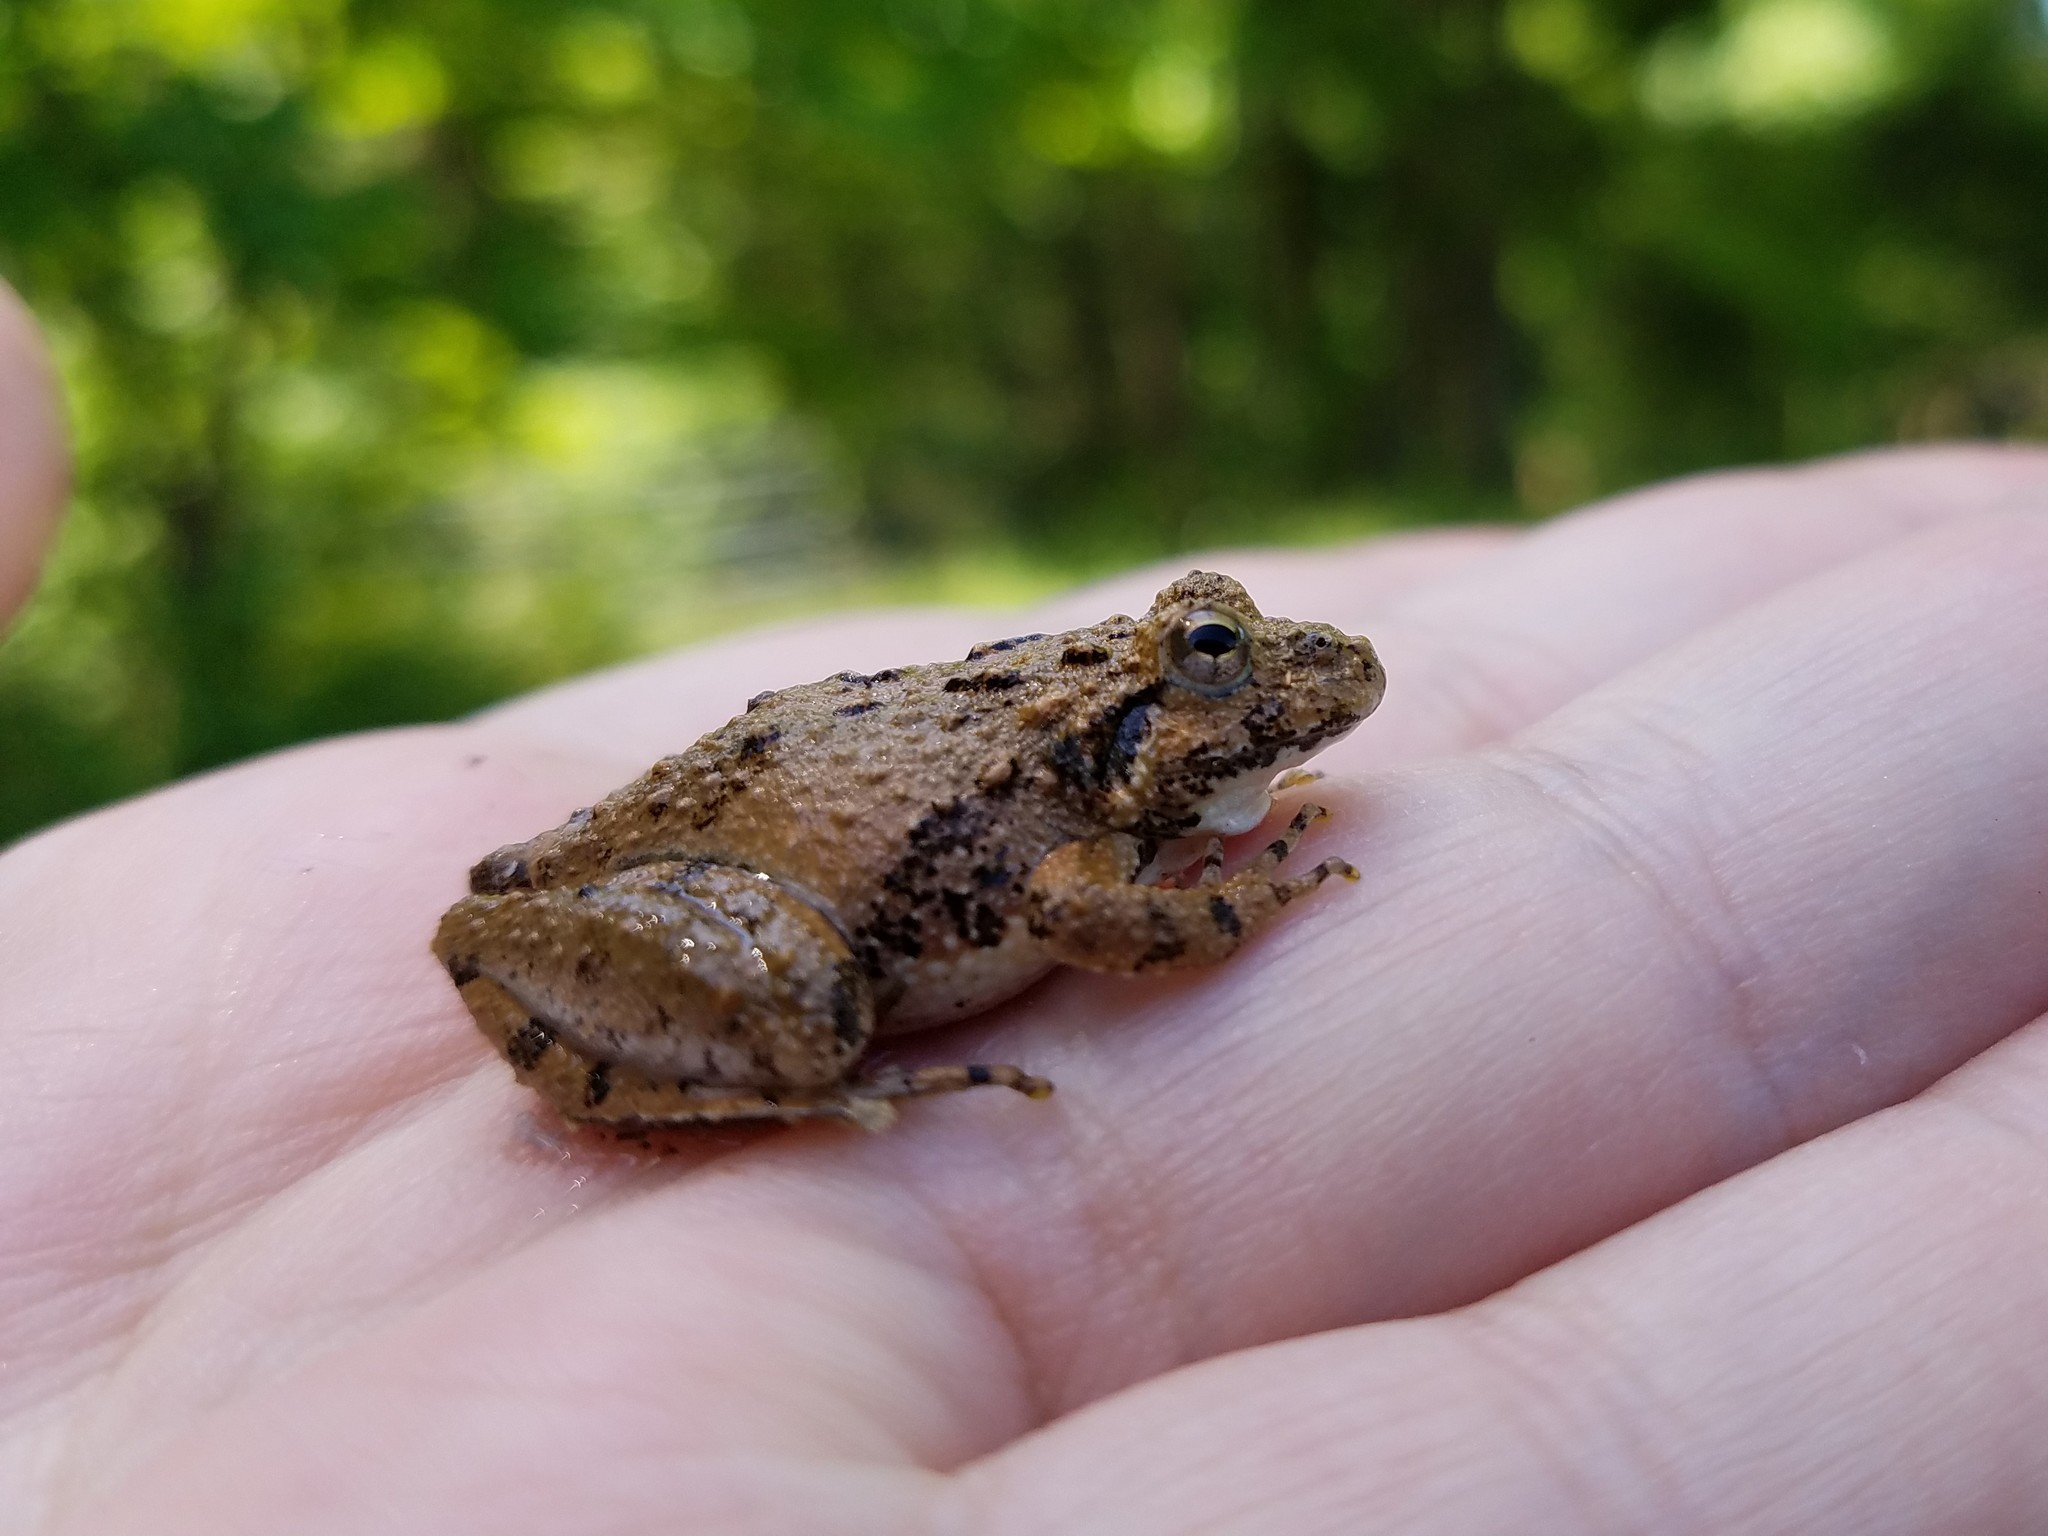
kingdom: Animalia
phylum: Chordata
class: Amphibia
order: Anura
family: Hylidae
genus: Acris
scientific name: Acris crepitans
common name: Northern cricket frog
